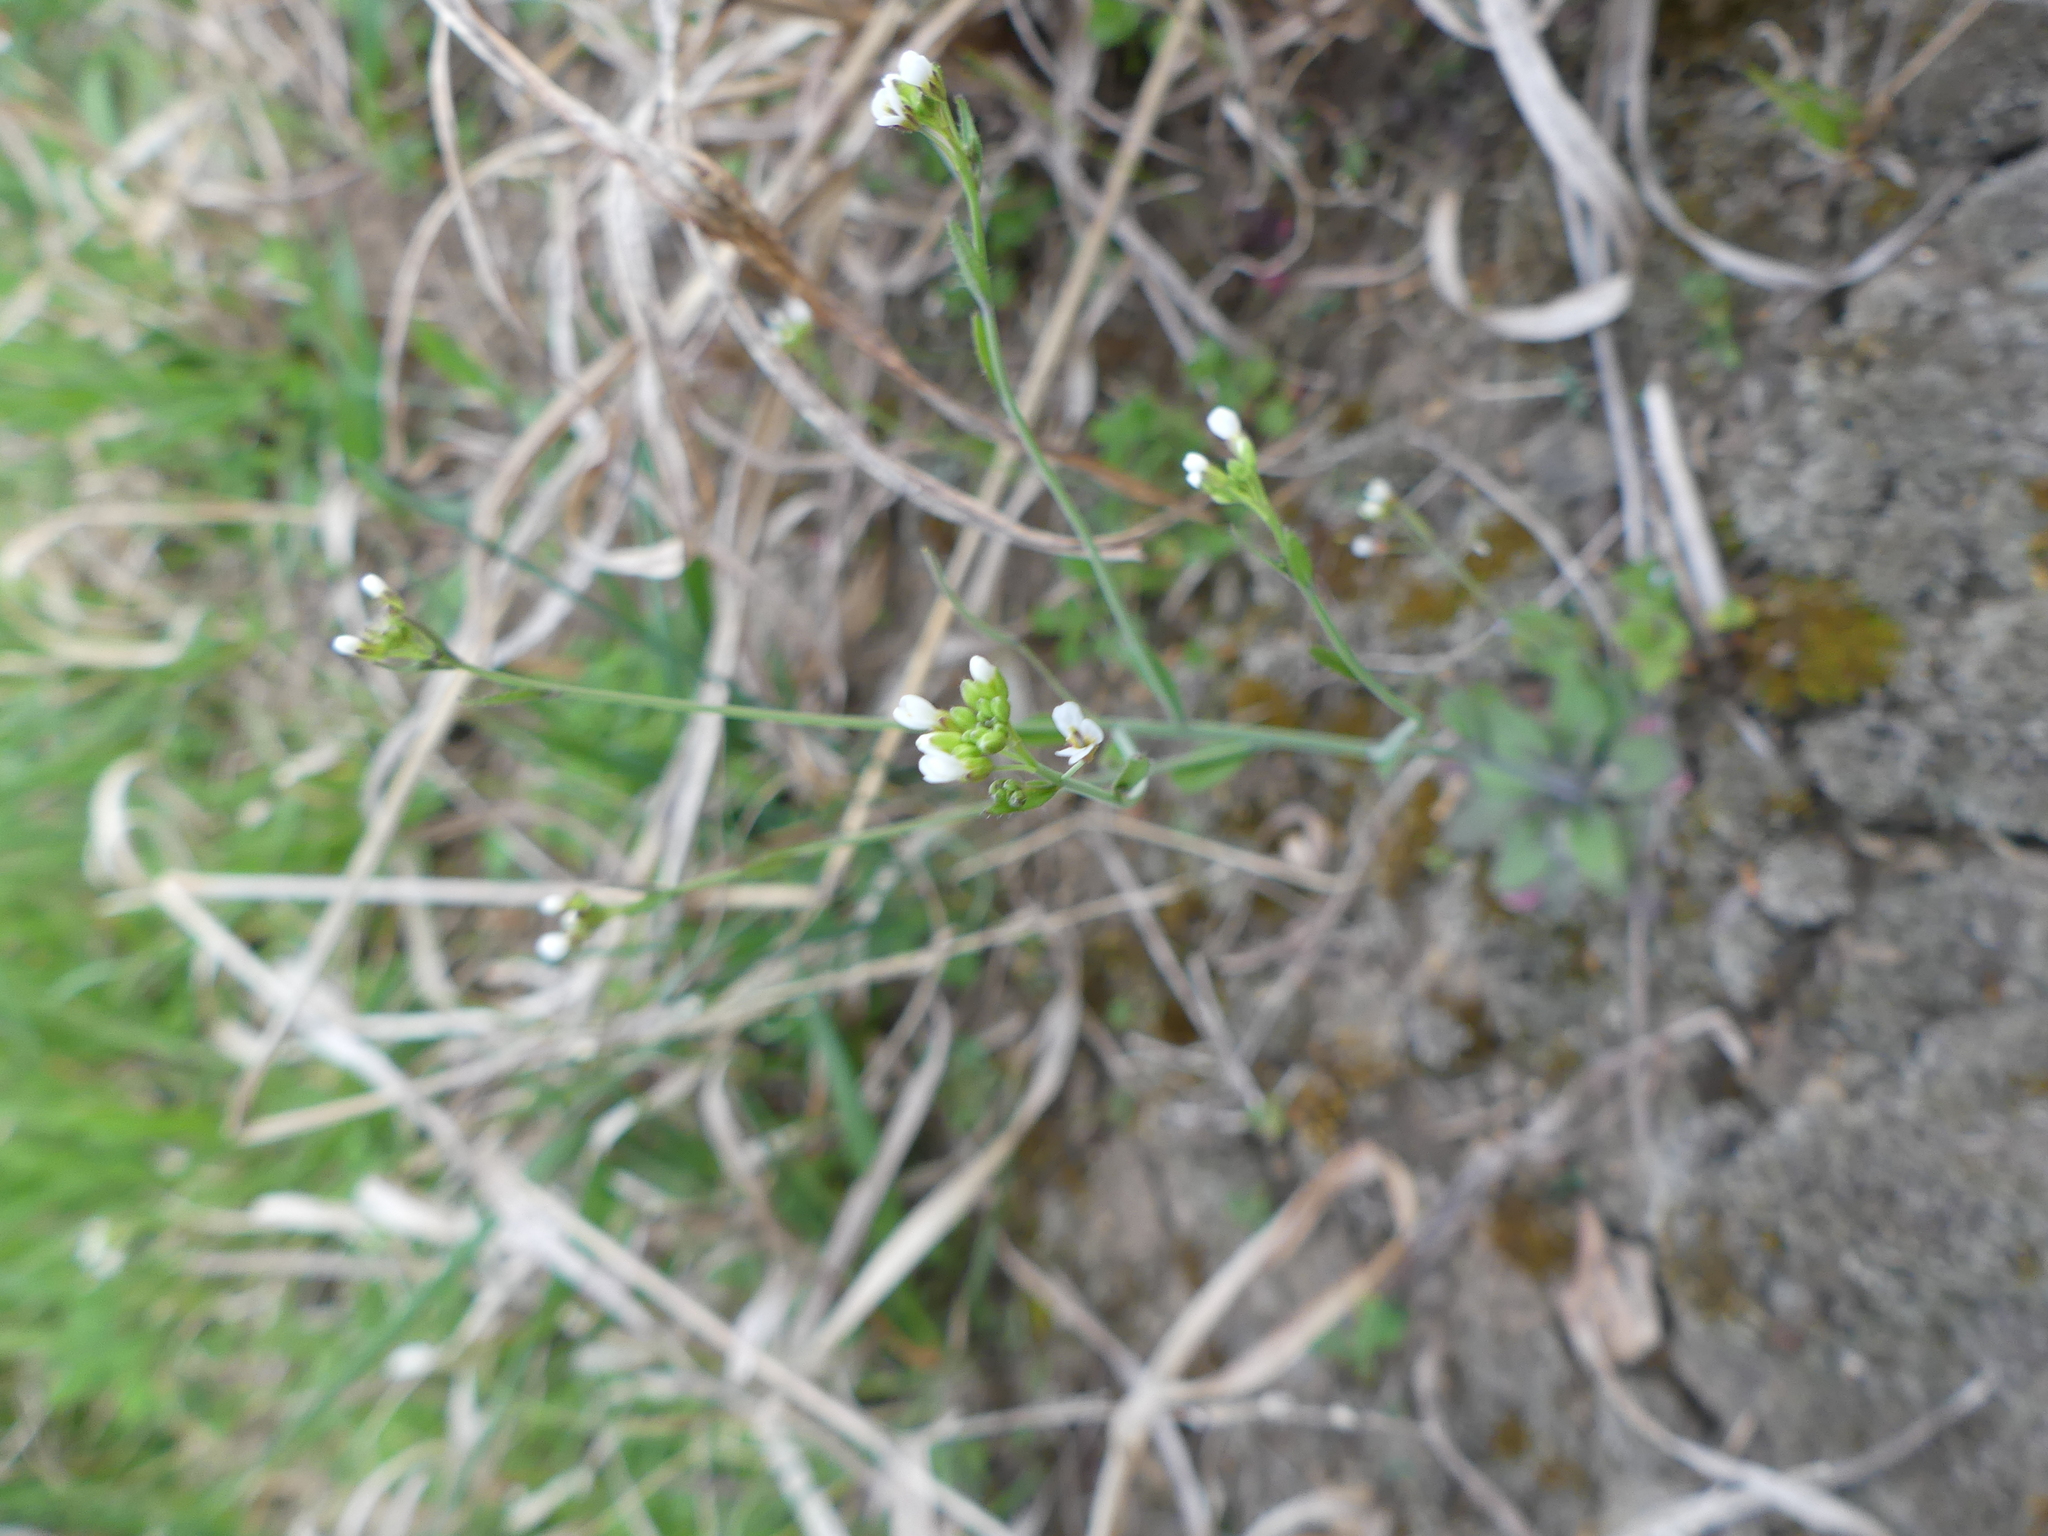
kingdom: Plantae
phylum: Tracheophyta
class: Magnoliopsida
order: Brassicales
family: Brassicaceae
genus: Arabidopsis
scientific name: Arabidopsis thaliana
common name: Thale cress
